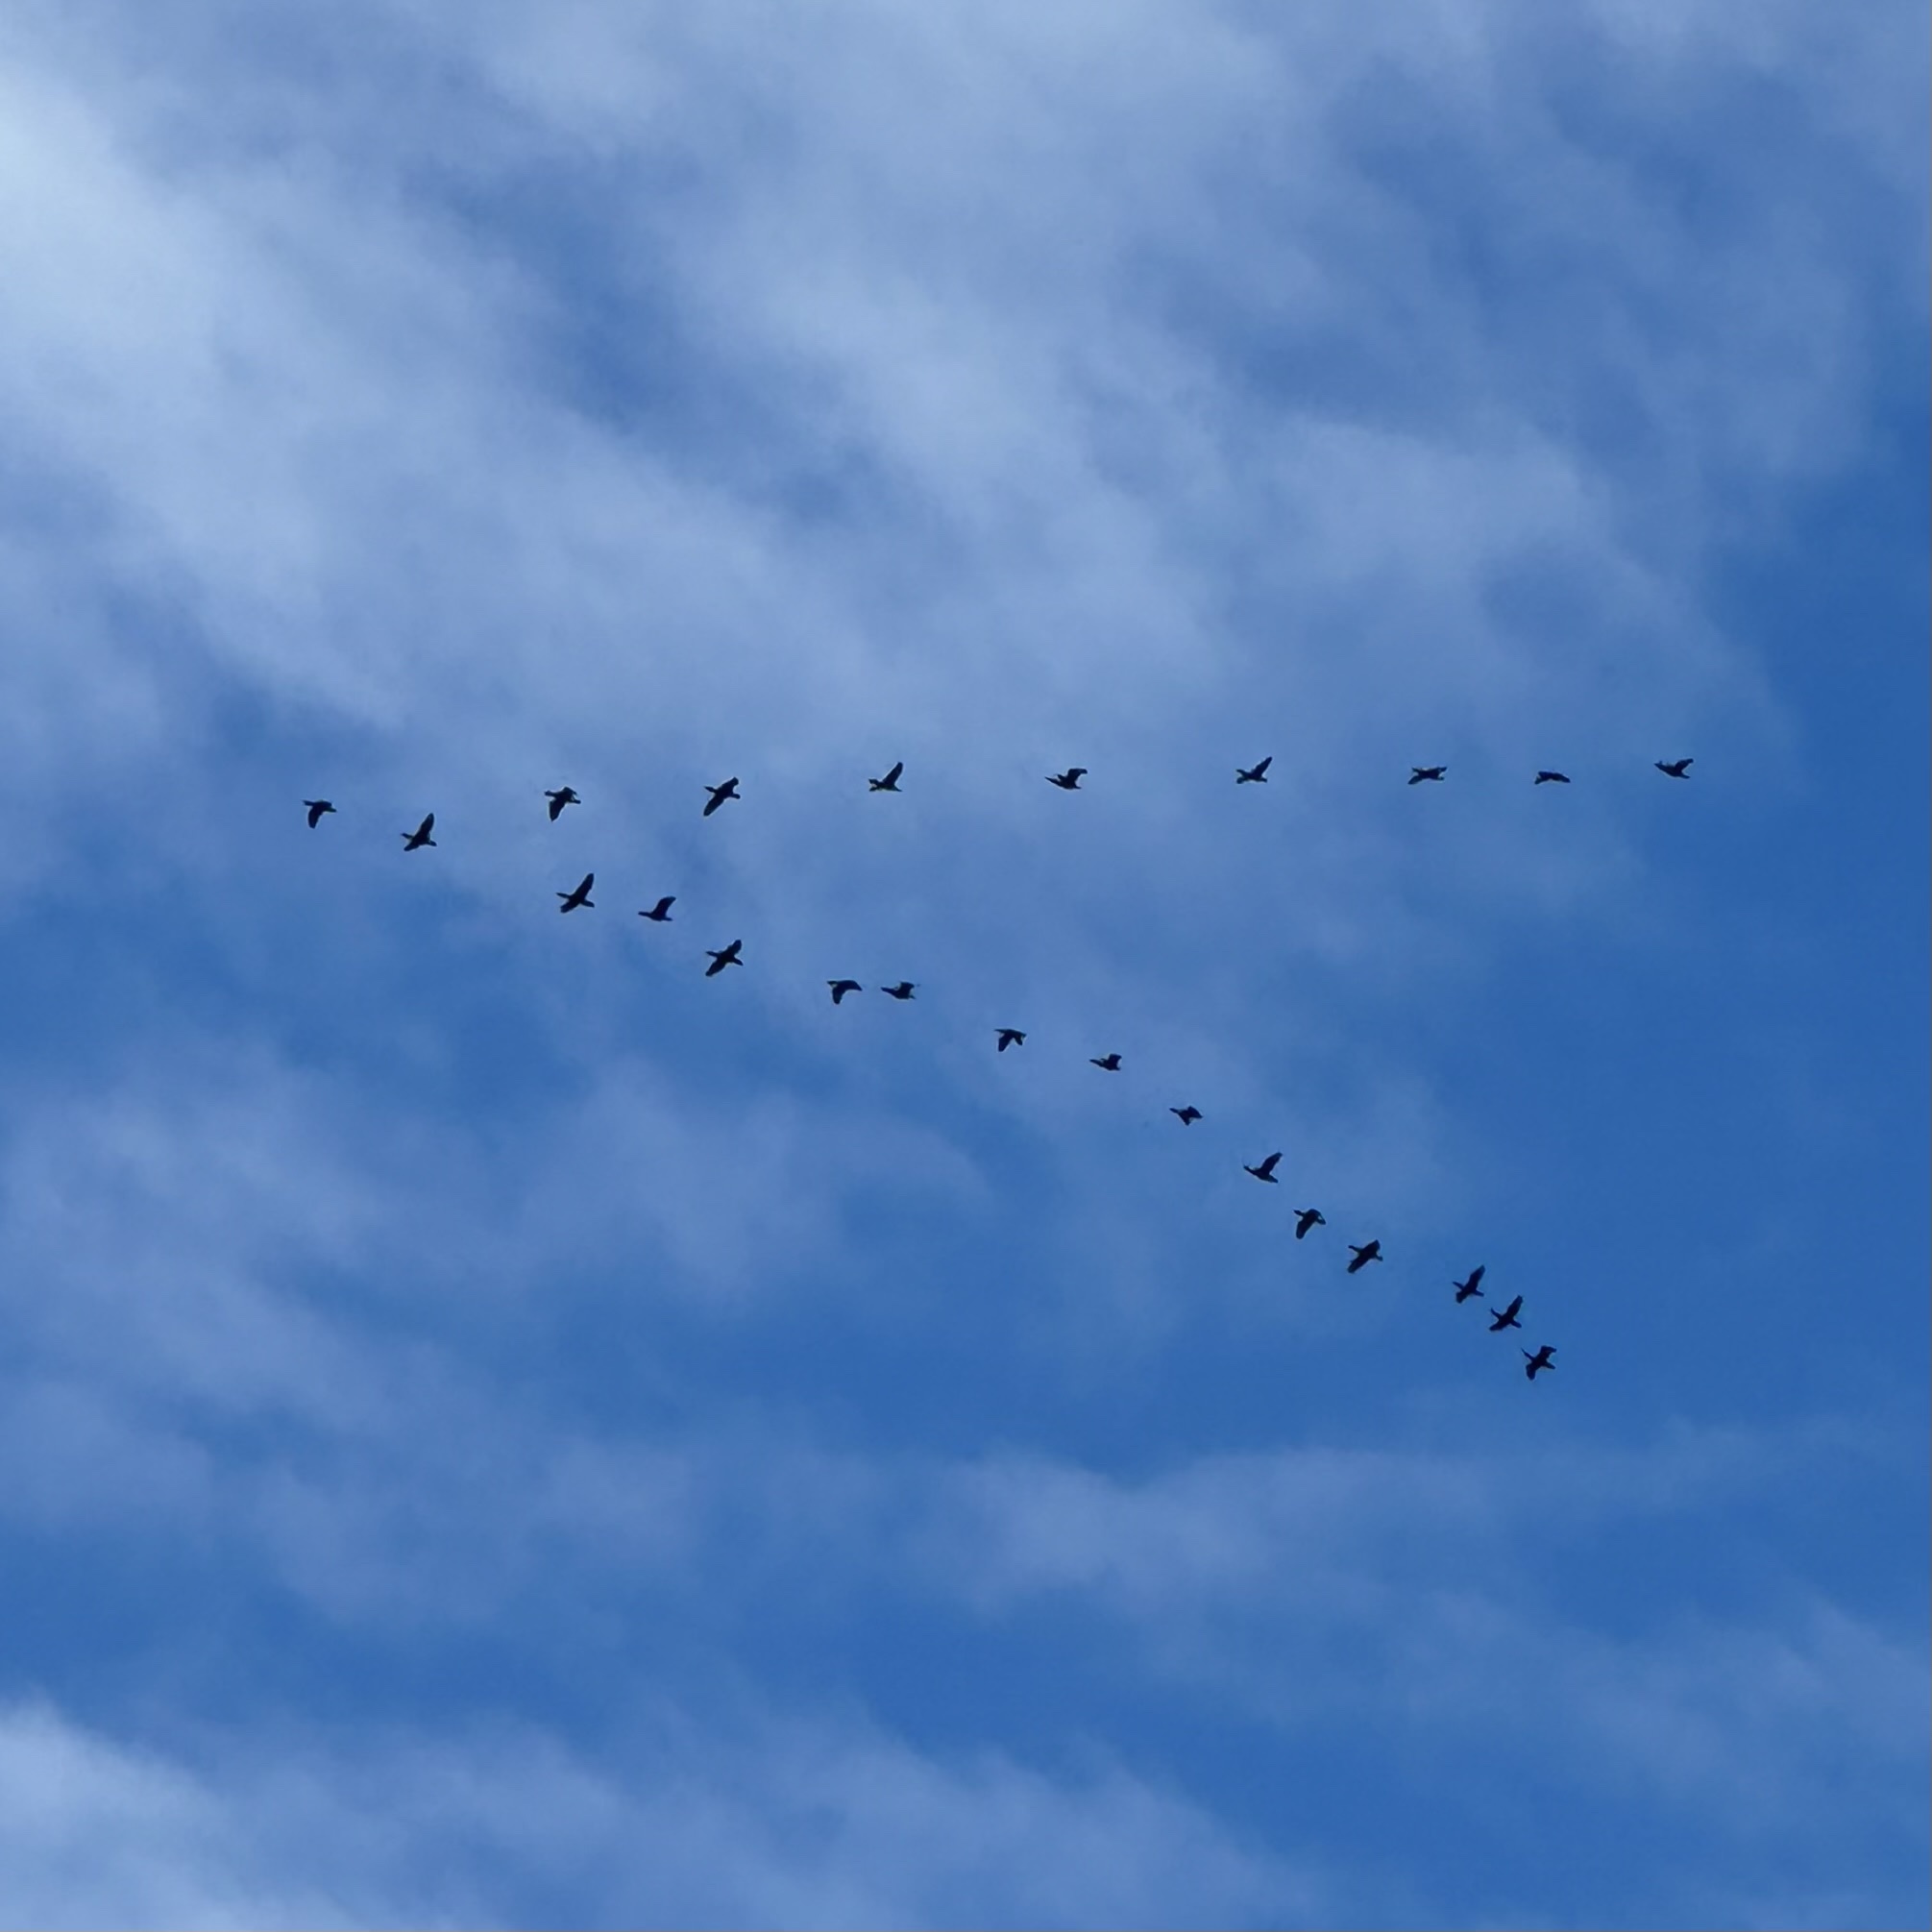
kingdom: Animalia
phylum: Chordata
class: Aves
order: Suliformes
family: Phalacrocoracidae
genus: Phalacrocorax
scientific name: Phalacrocorax auritus
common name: Double-crested cormorant
